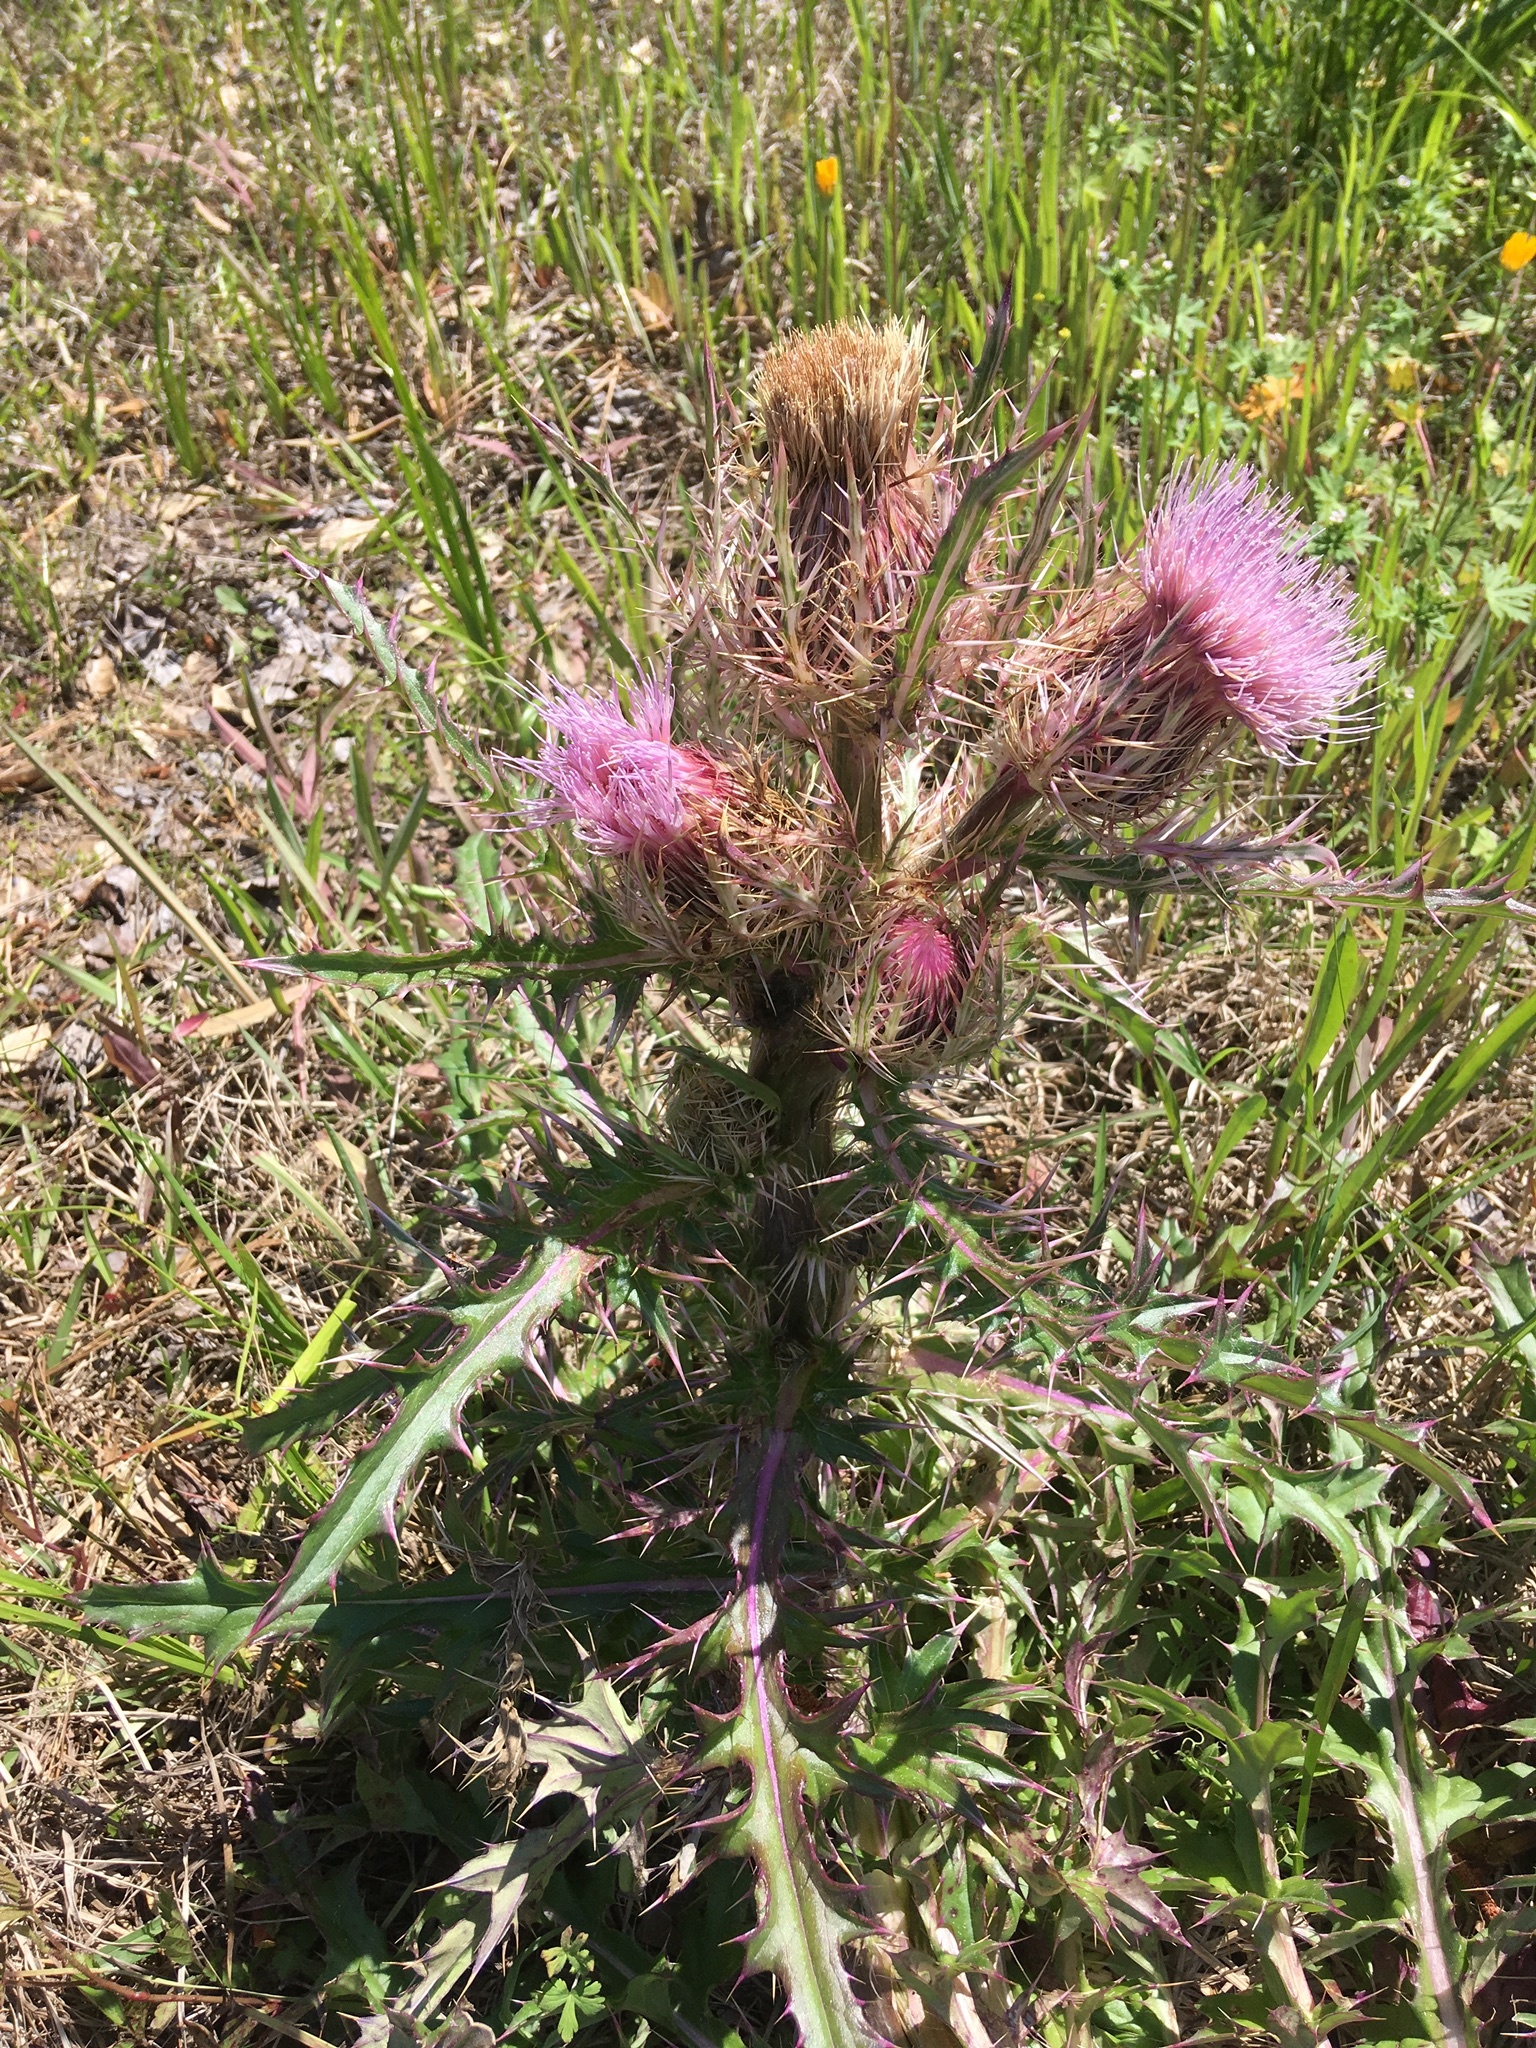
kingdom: Plantae
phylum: Tracheophyta
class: Magnoliopsida
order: Asterales
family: Asteraceae
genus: Cirsium
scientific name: Cirsium horridulum
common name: Bristly thistle
